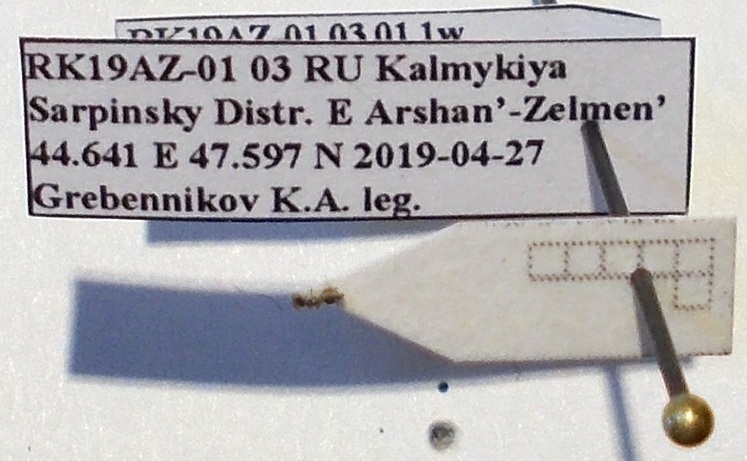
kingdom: Animalia
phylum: Arthropoda
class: Insecta
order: Hymenoptera
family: Formicidae
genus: Plagiolepis
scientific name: Plagiolepis pallescens
